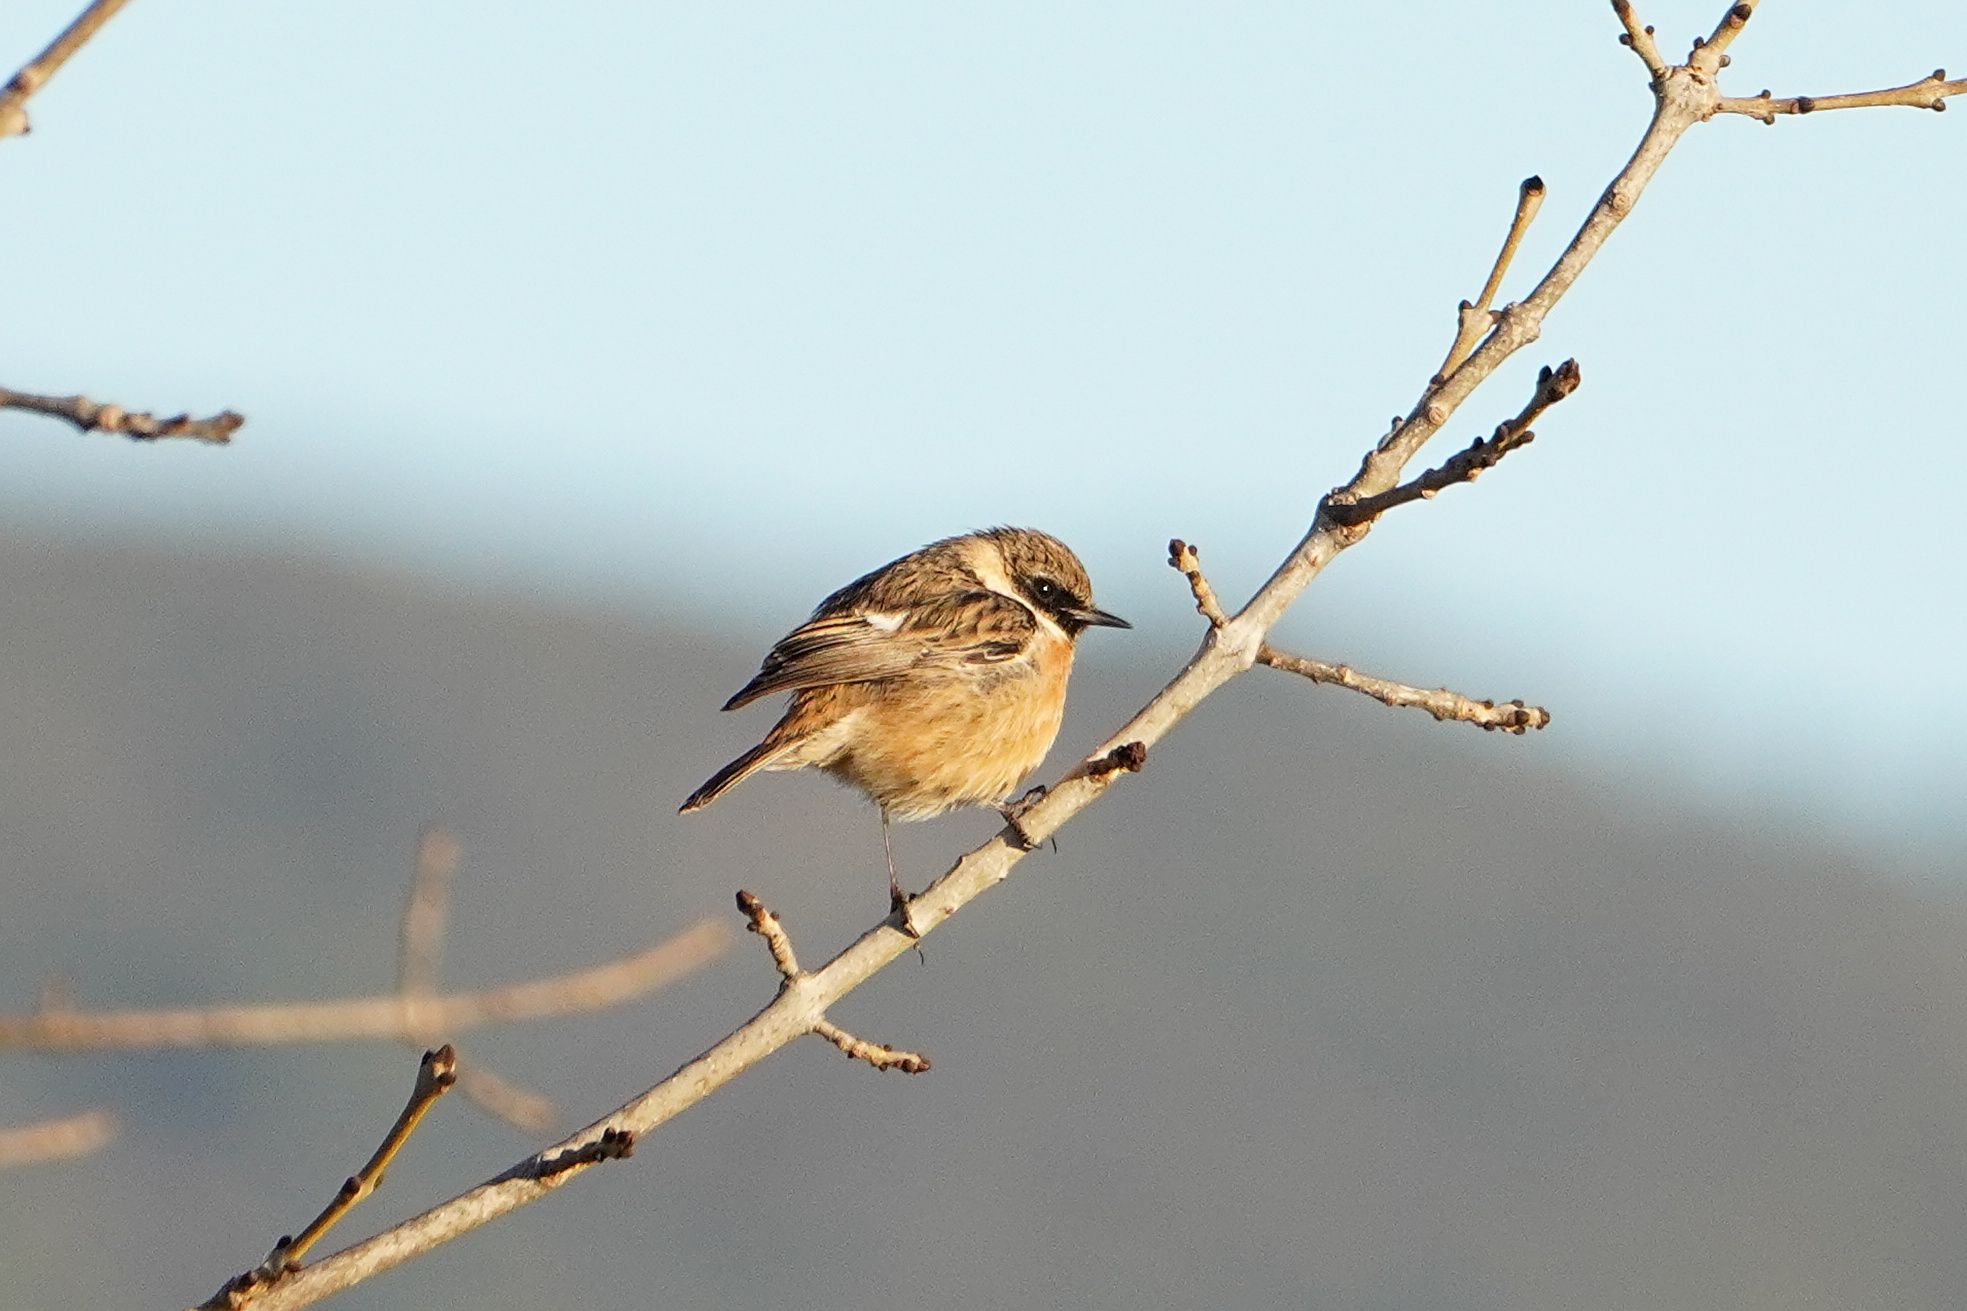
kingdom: Animalia
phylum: Chordata
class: Aves
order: Passeriformes
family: Muscicapidae
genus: Saxicola
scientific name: Saxicola rubicola
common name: European stonechat
